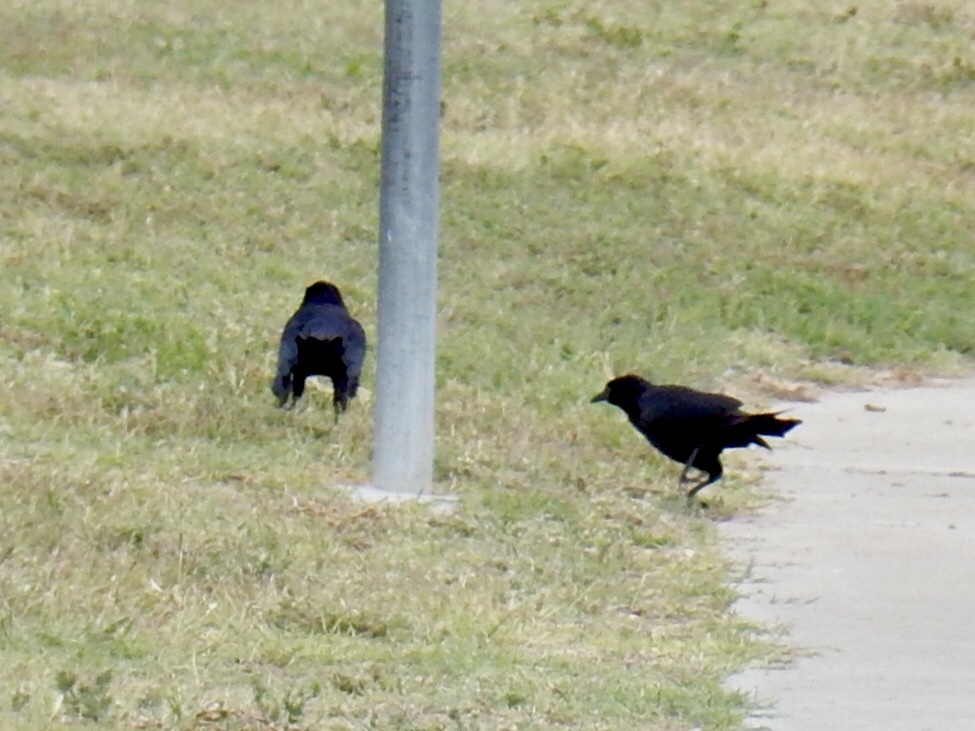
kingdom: Animalia
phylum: Chordata
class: Aves
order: Passeriformes
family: Icteridae
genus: Quiscalus
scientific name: Quiscalus mexicanus
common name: Great-tailed grackle
